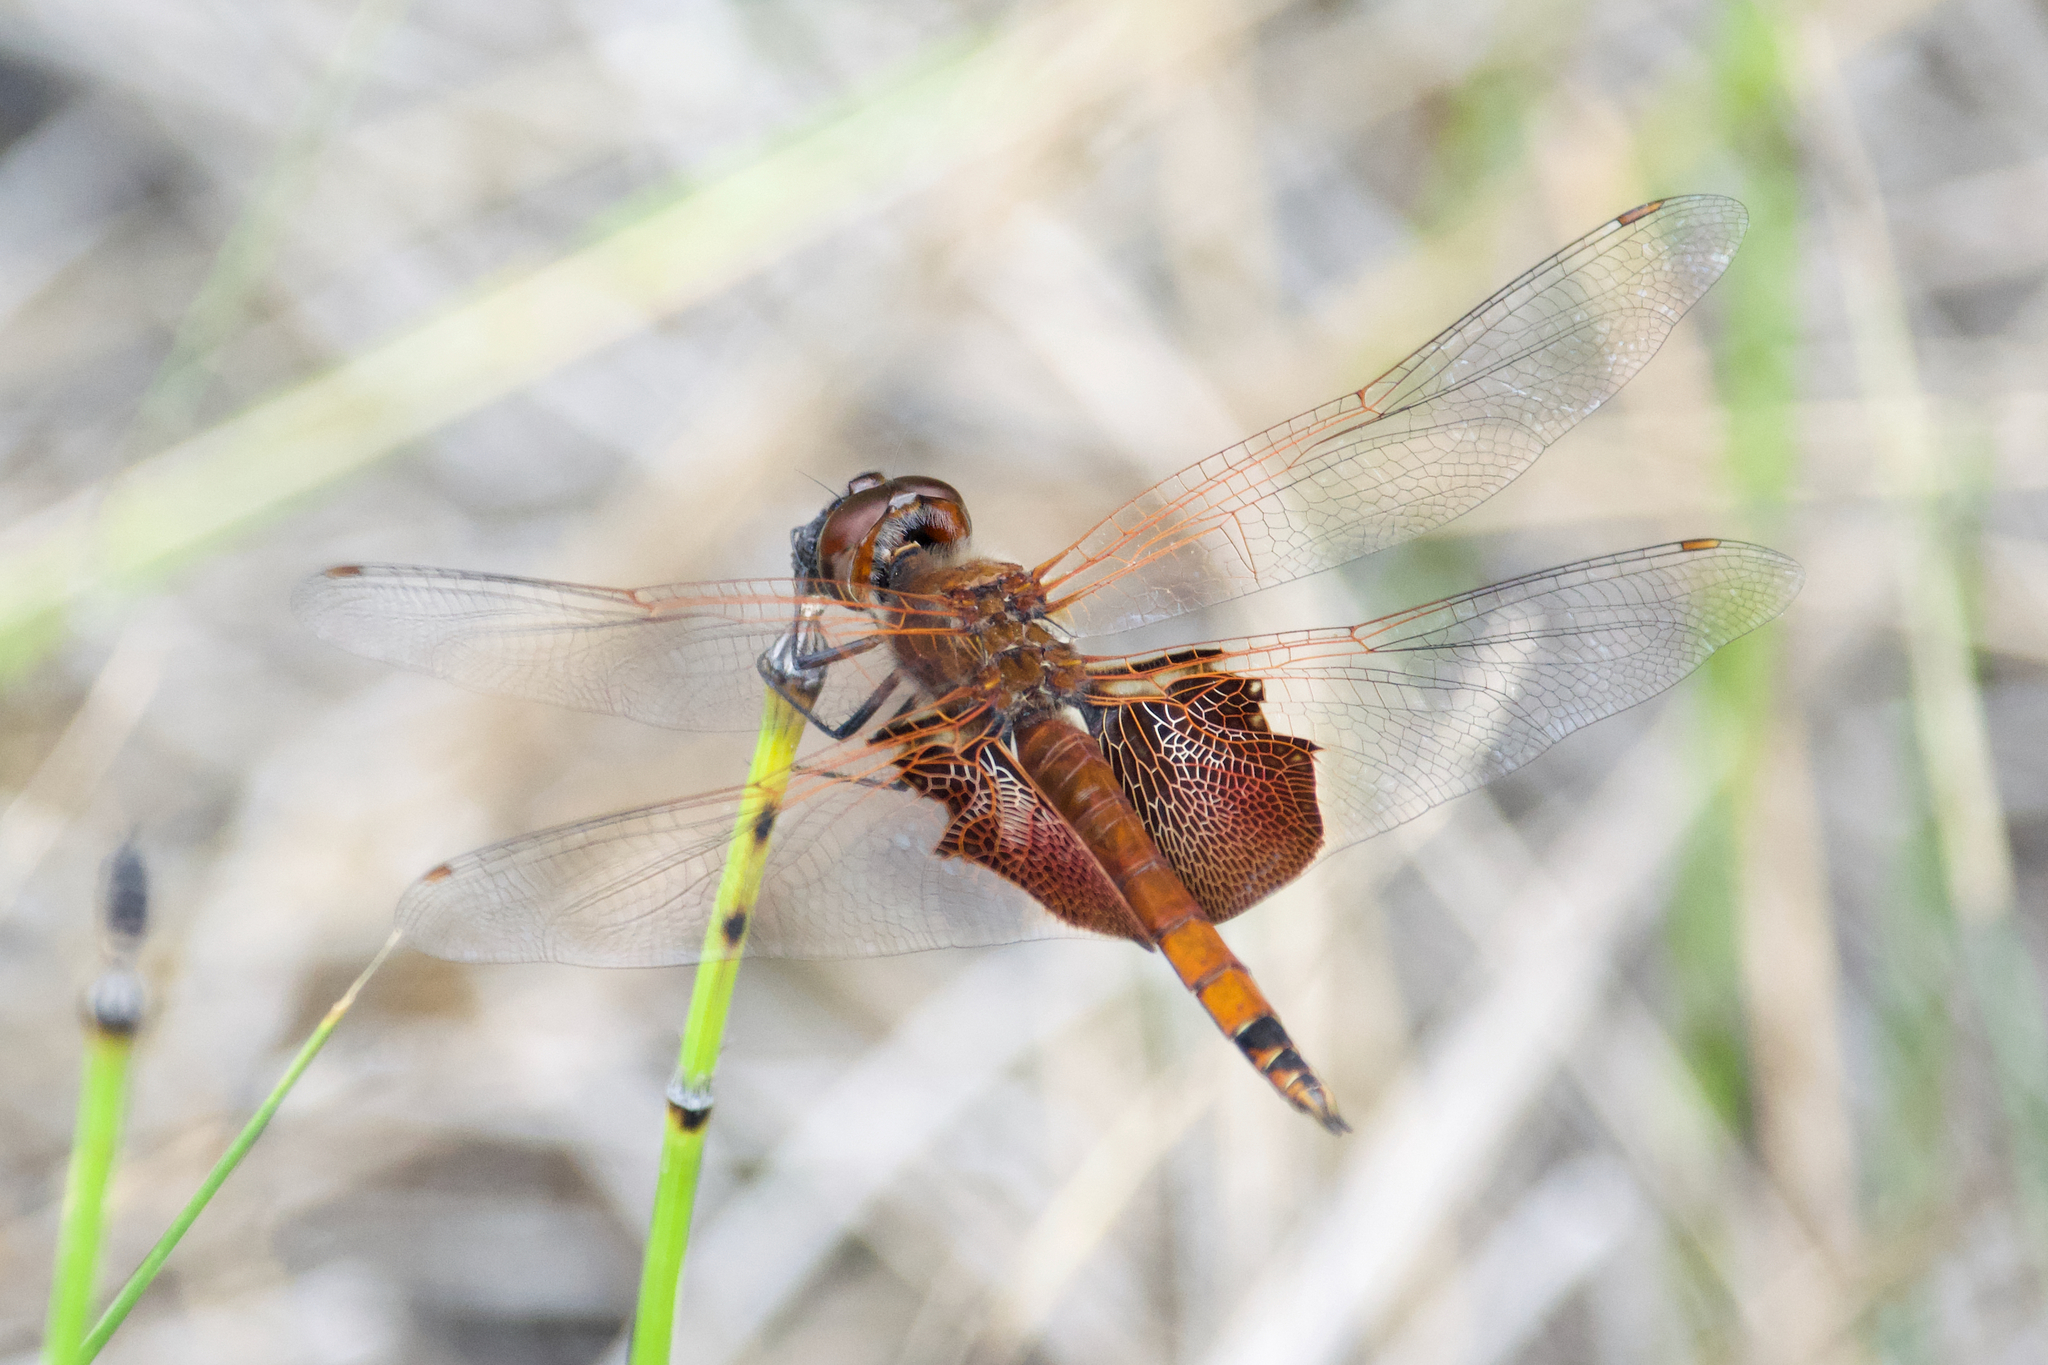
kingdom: Animalia
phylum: Arthropoda
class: Insecta
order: Odonata
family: Libellulidae
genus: Tramea
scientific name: Tramea carolina
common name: Carolina saddlebags
